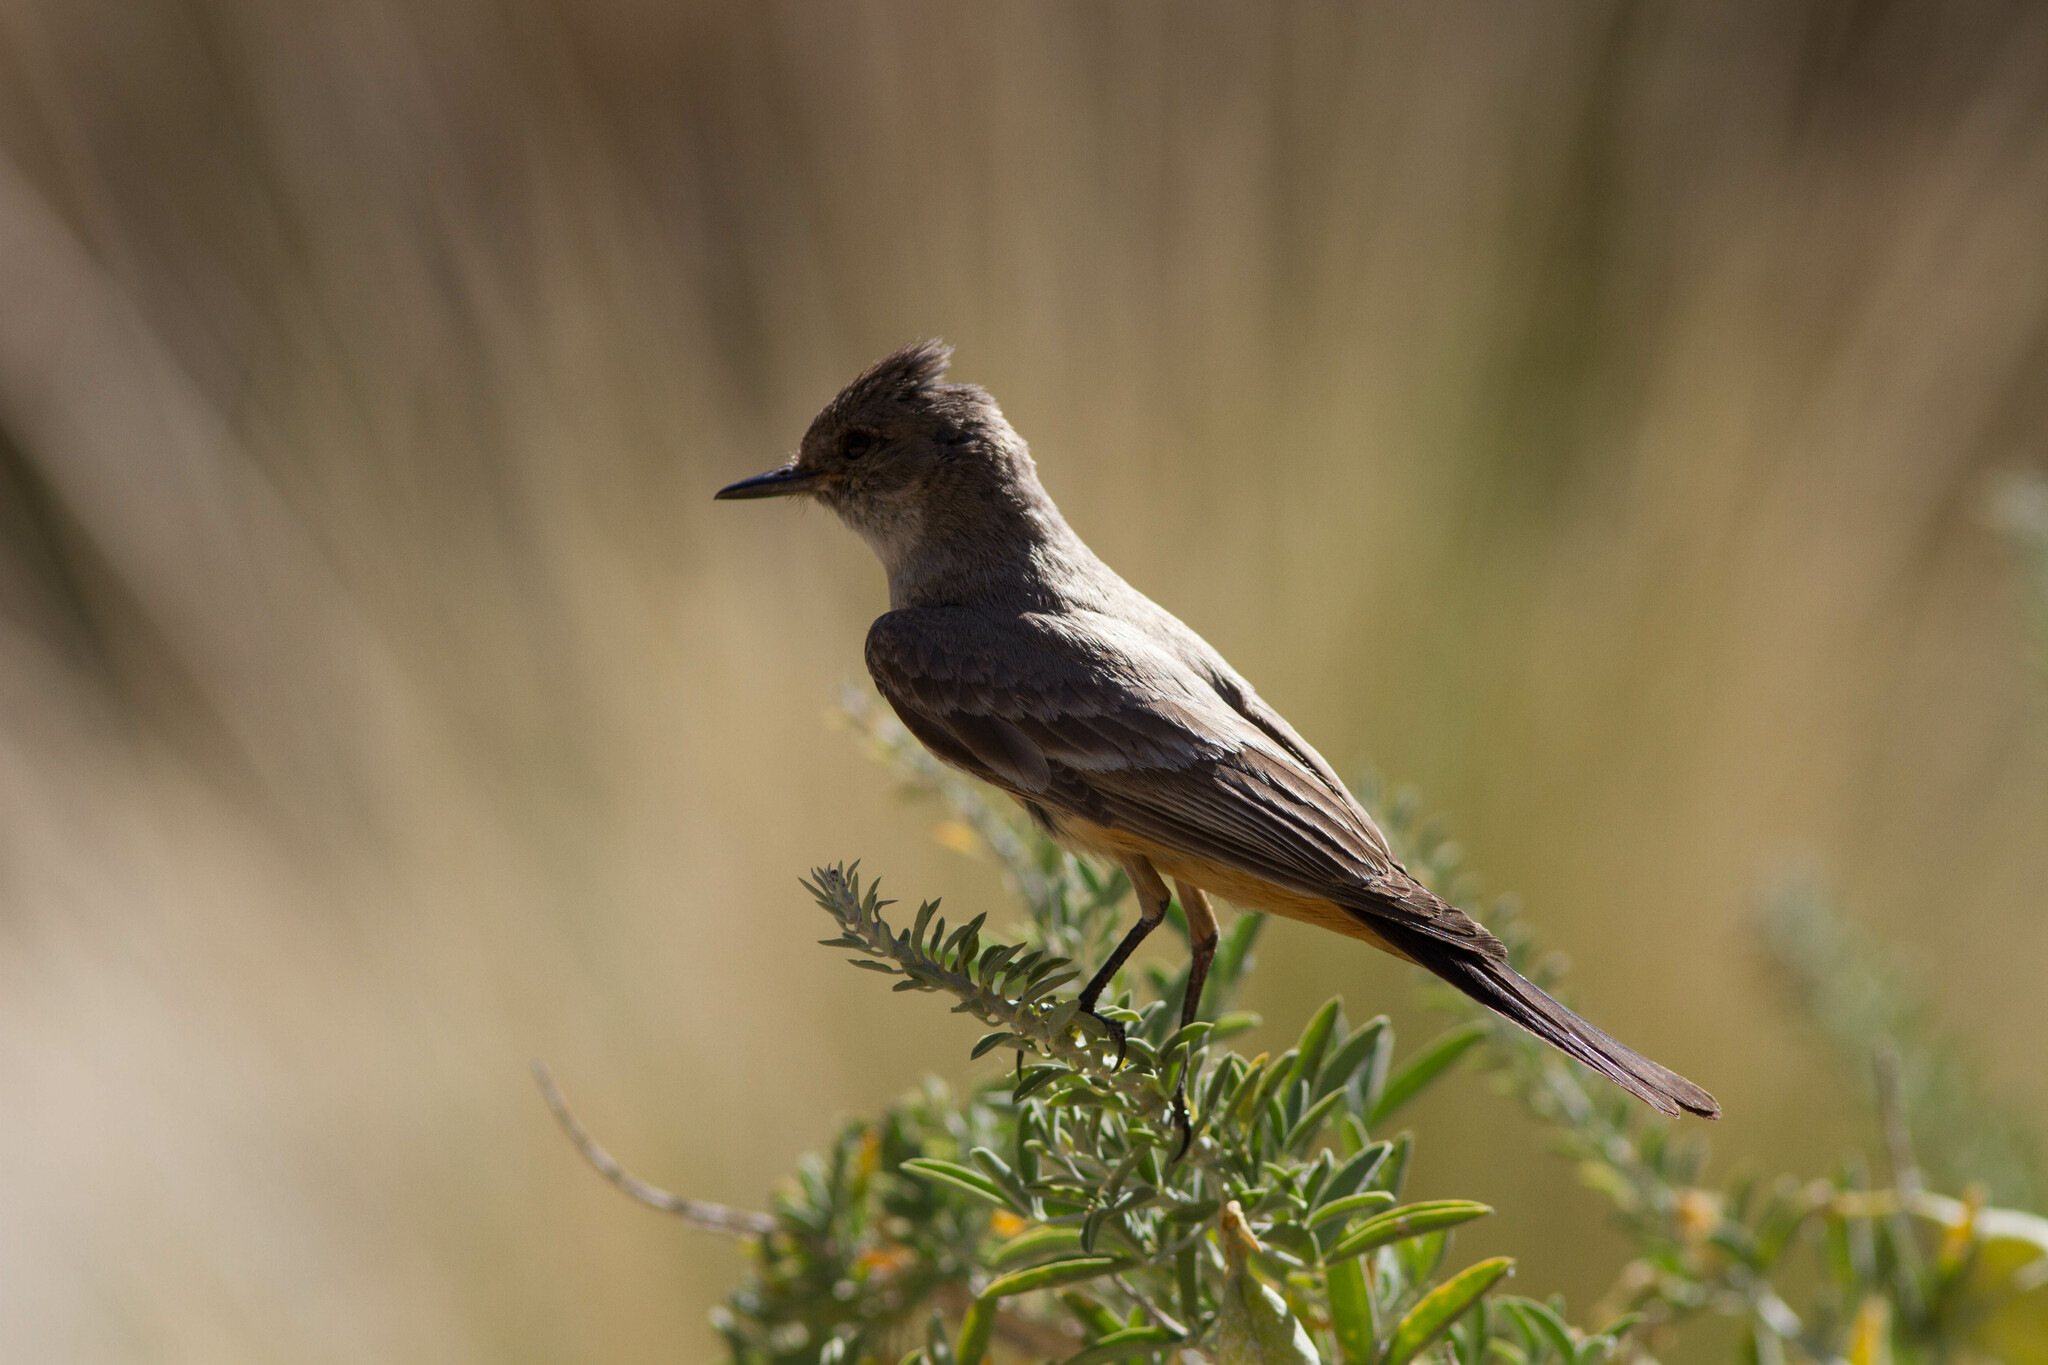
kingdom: Animalia
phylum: Chordata
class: Aves
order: Passeriformes
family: Tyrannidae
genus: Sayornis
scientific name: Sayornis saya
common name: Say's phoebe
